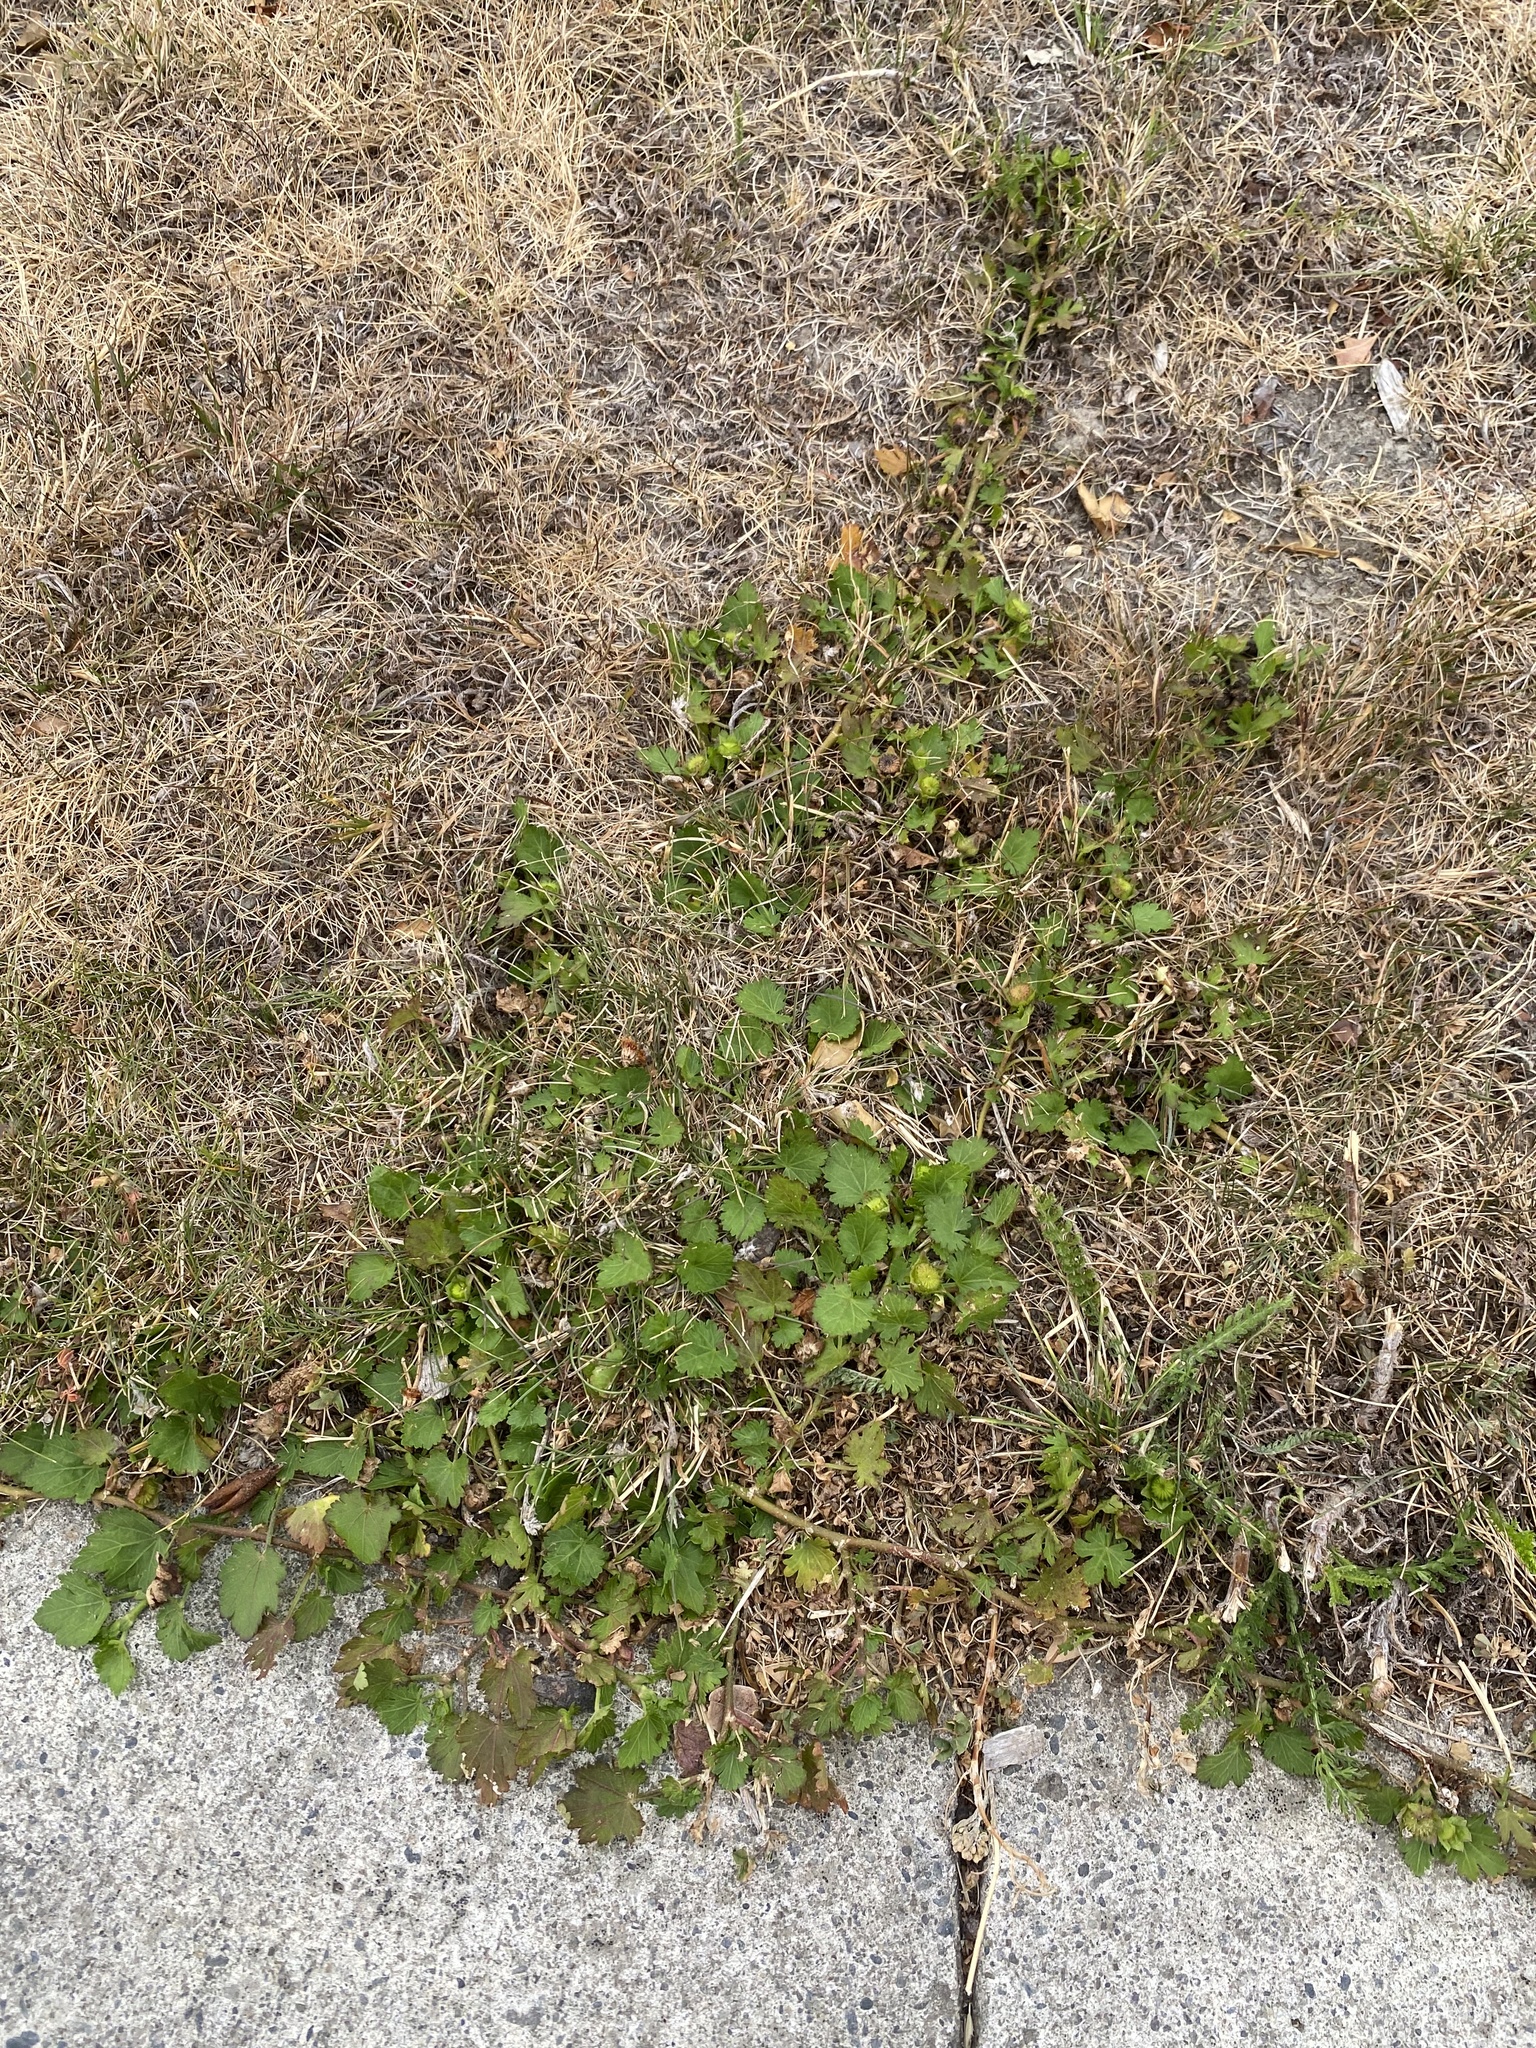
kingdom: Plantae
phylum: Tracheophyta
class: Magnoliopsida
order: Malvales
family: Malvaceae
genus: Modiola
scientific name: Modiola caroliniana
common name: Carolina bristlemallow
